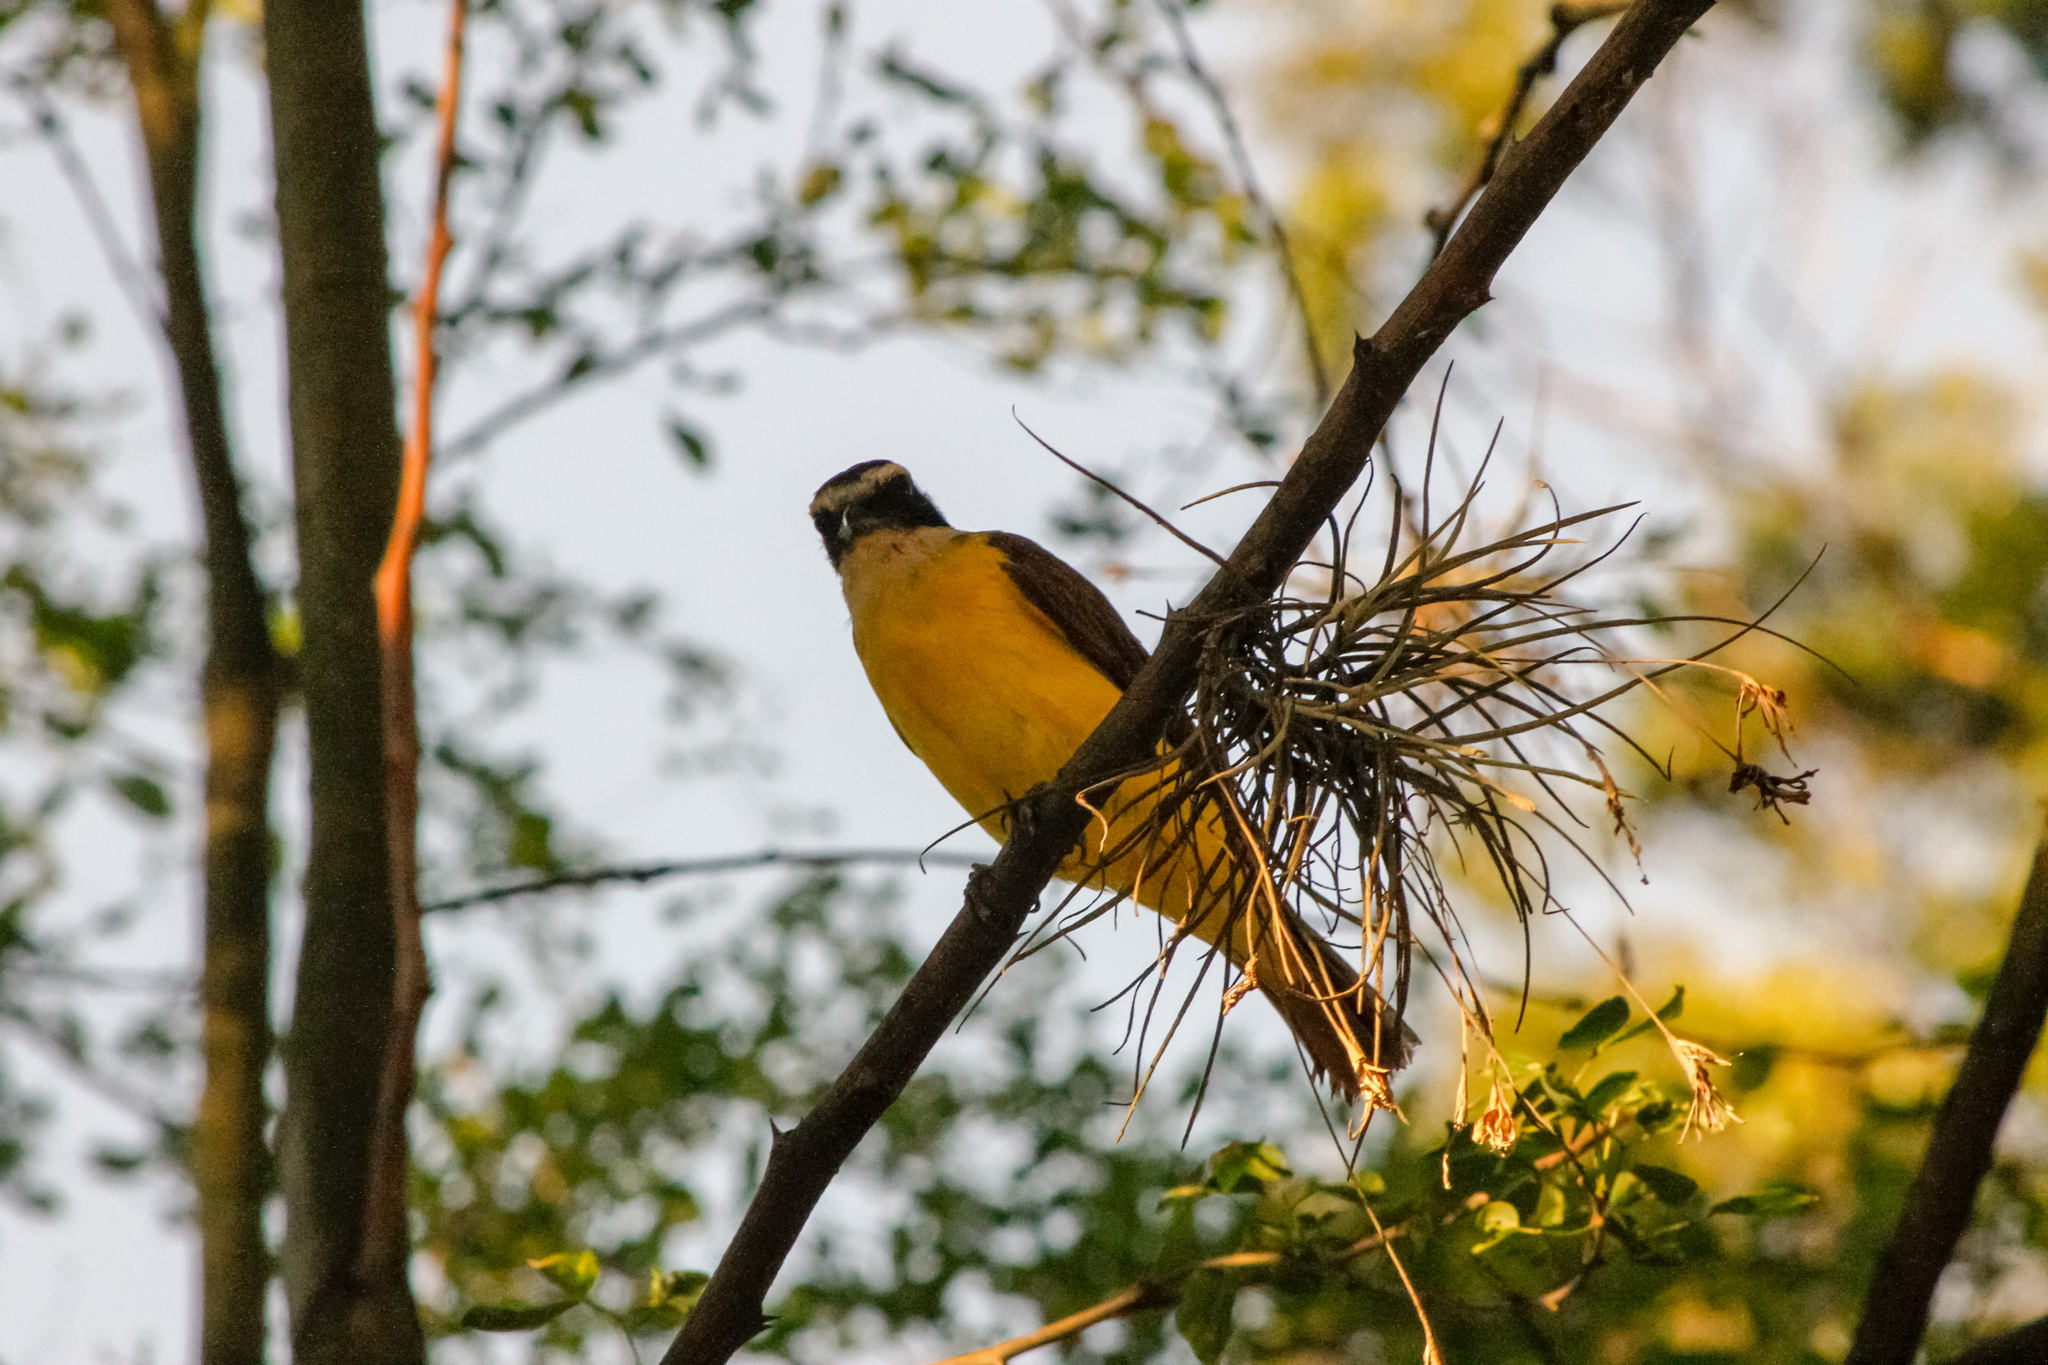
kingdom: Animalia
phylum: Chordata
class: Aves
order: Passeriformes
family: Tyrannidae
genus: Pitangus
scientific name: Pitangus sulphuratus
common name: Great kiskadee
